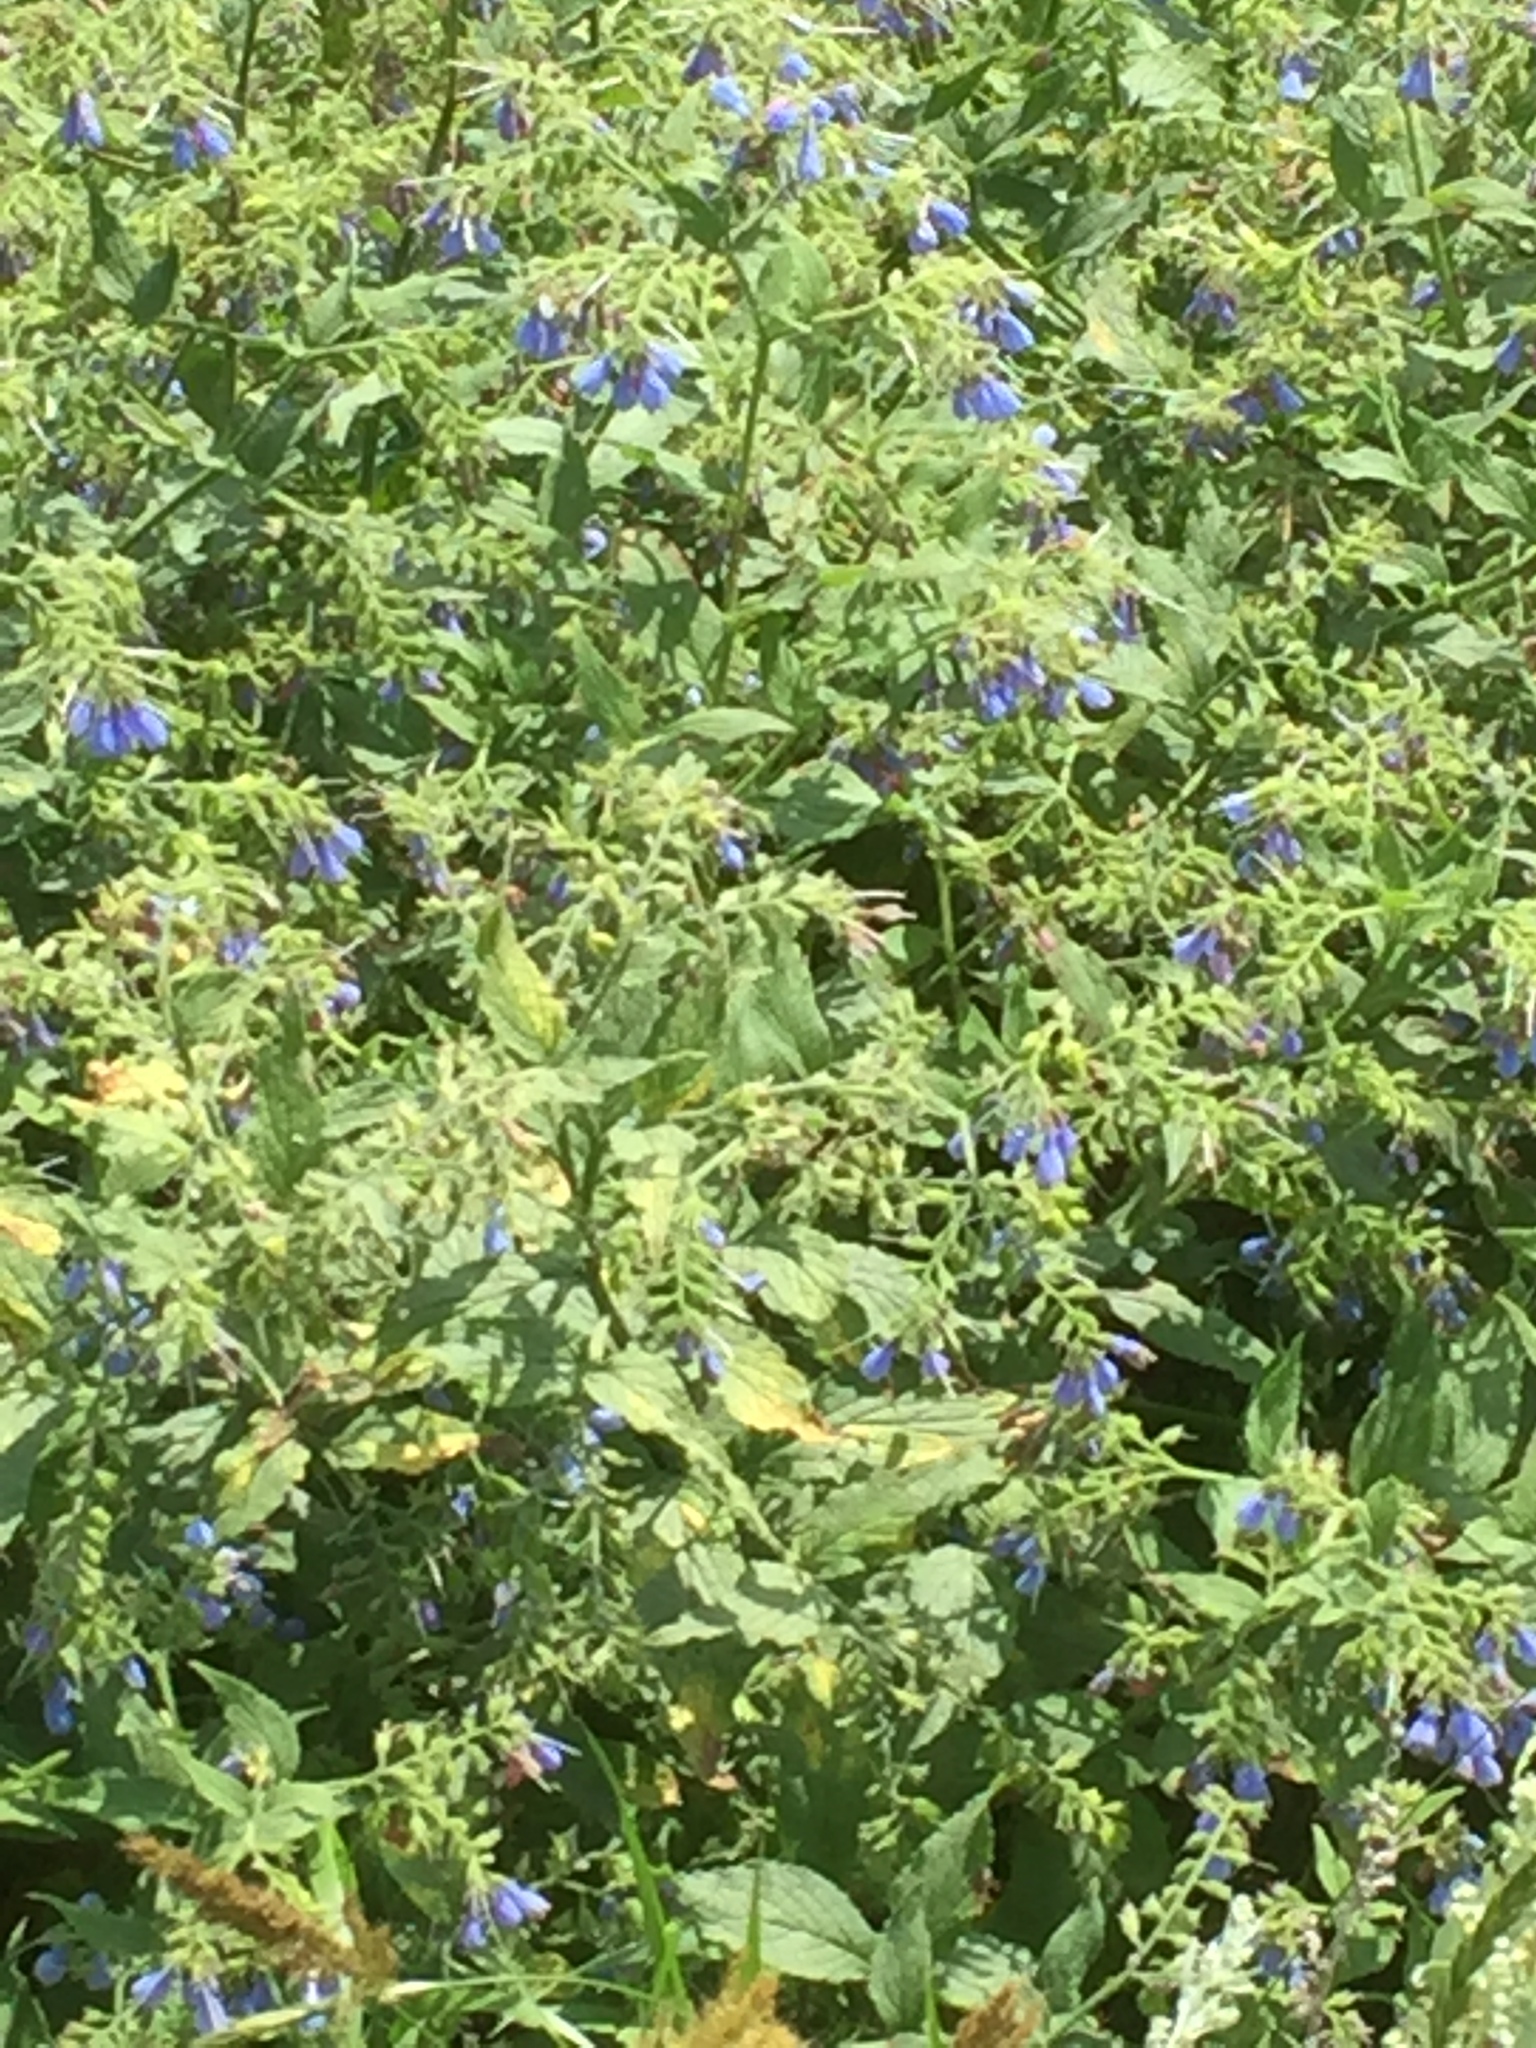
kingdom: Plantae
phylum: Tracheophyta
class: Magnoliopsida
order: Boraginales
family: Boraginaceae
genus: Symphytum
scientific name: Symphytum caucasicum
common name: Caucasian comfrey
